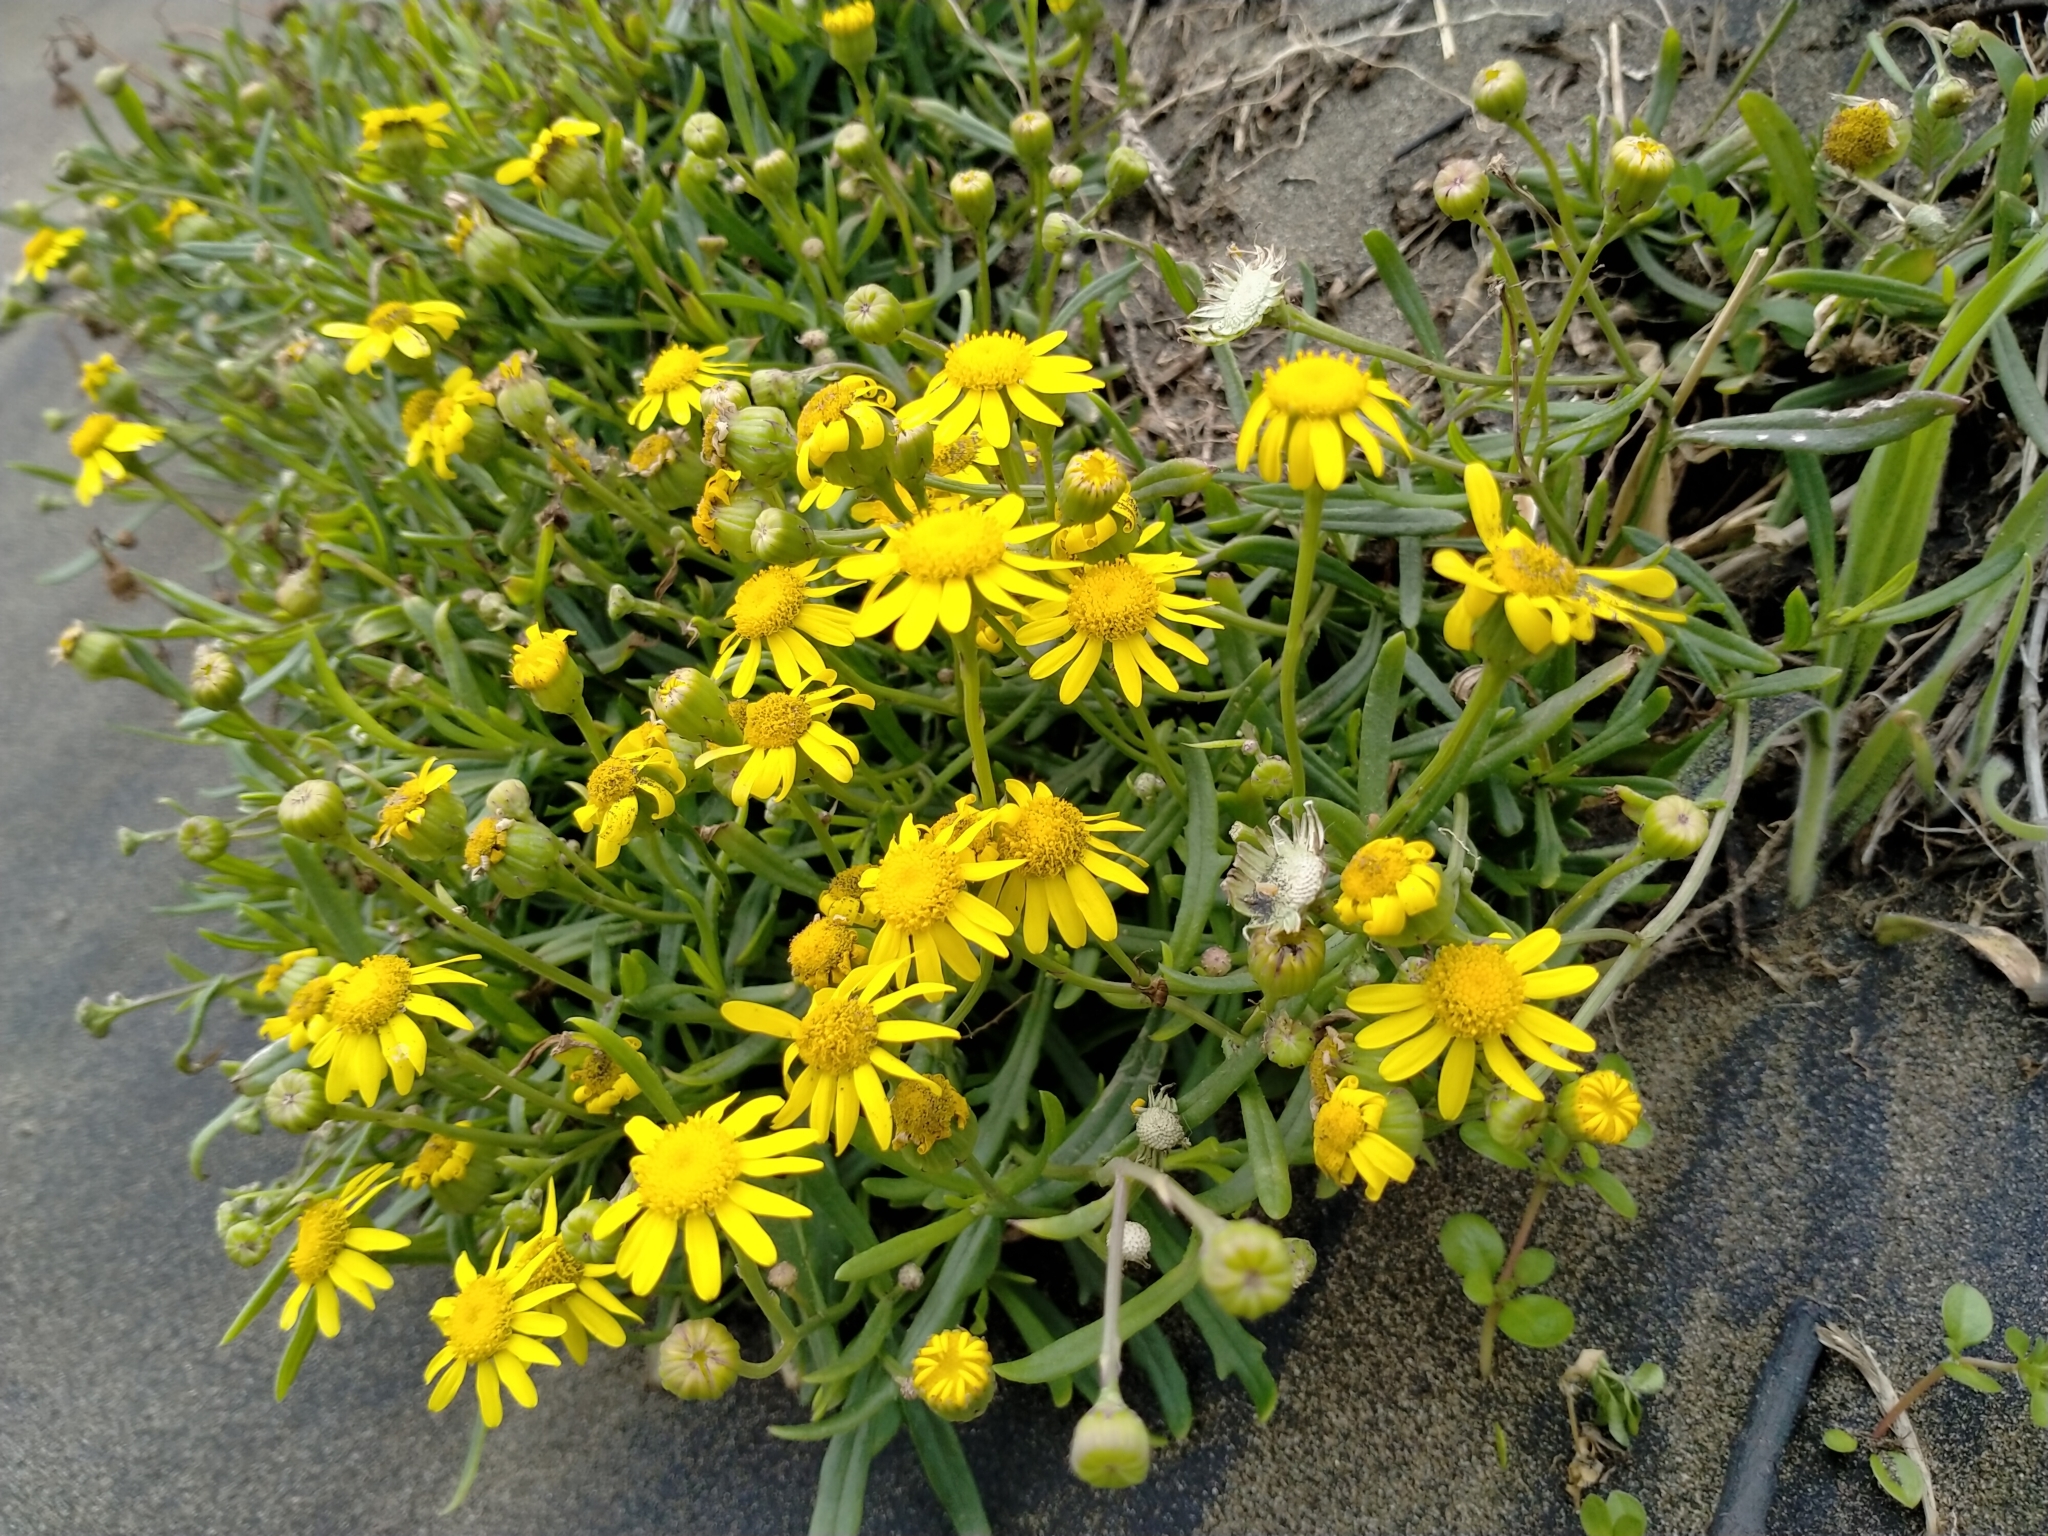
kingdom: Plantae
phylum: Tracheophyta
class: Magnoliopsida
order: Asterales
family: Asteraceae
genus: Senecio
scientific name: Senecio skirrhodon
